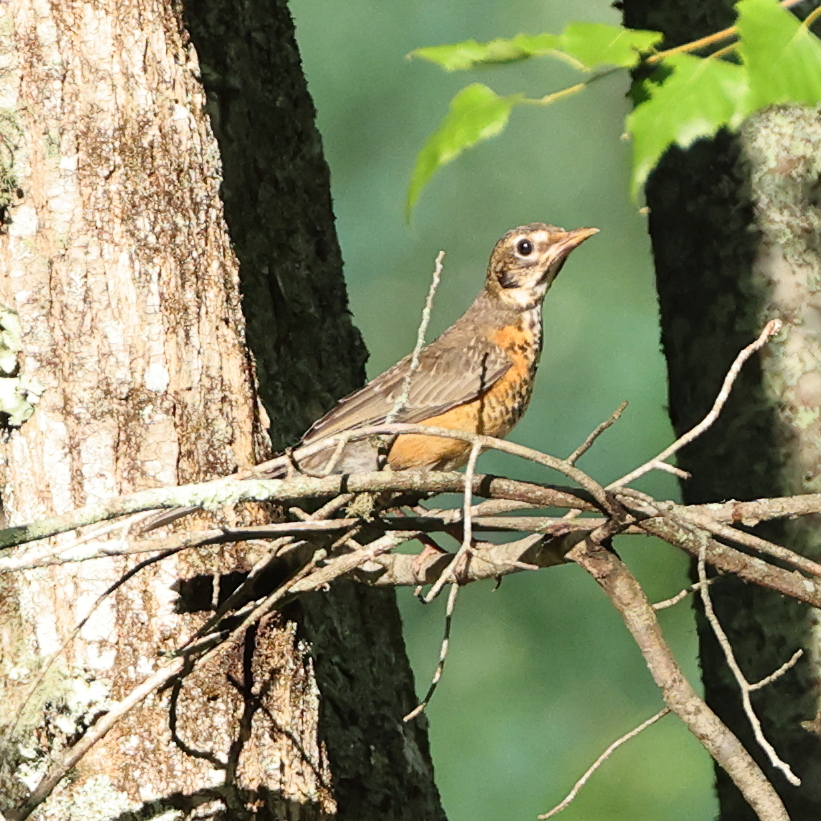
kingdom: Animalia
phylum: Chordata
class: Aves
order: Passeriformes
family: Turdidae
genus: Turdus
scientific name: Turdus migratorius
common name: American robin
